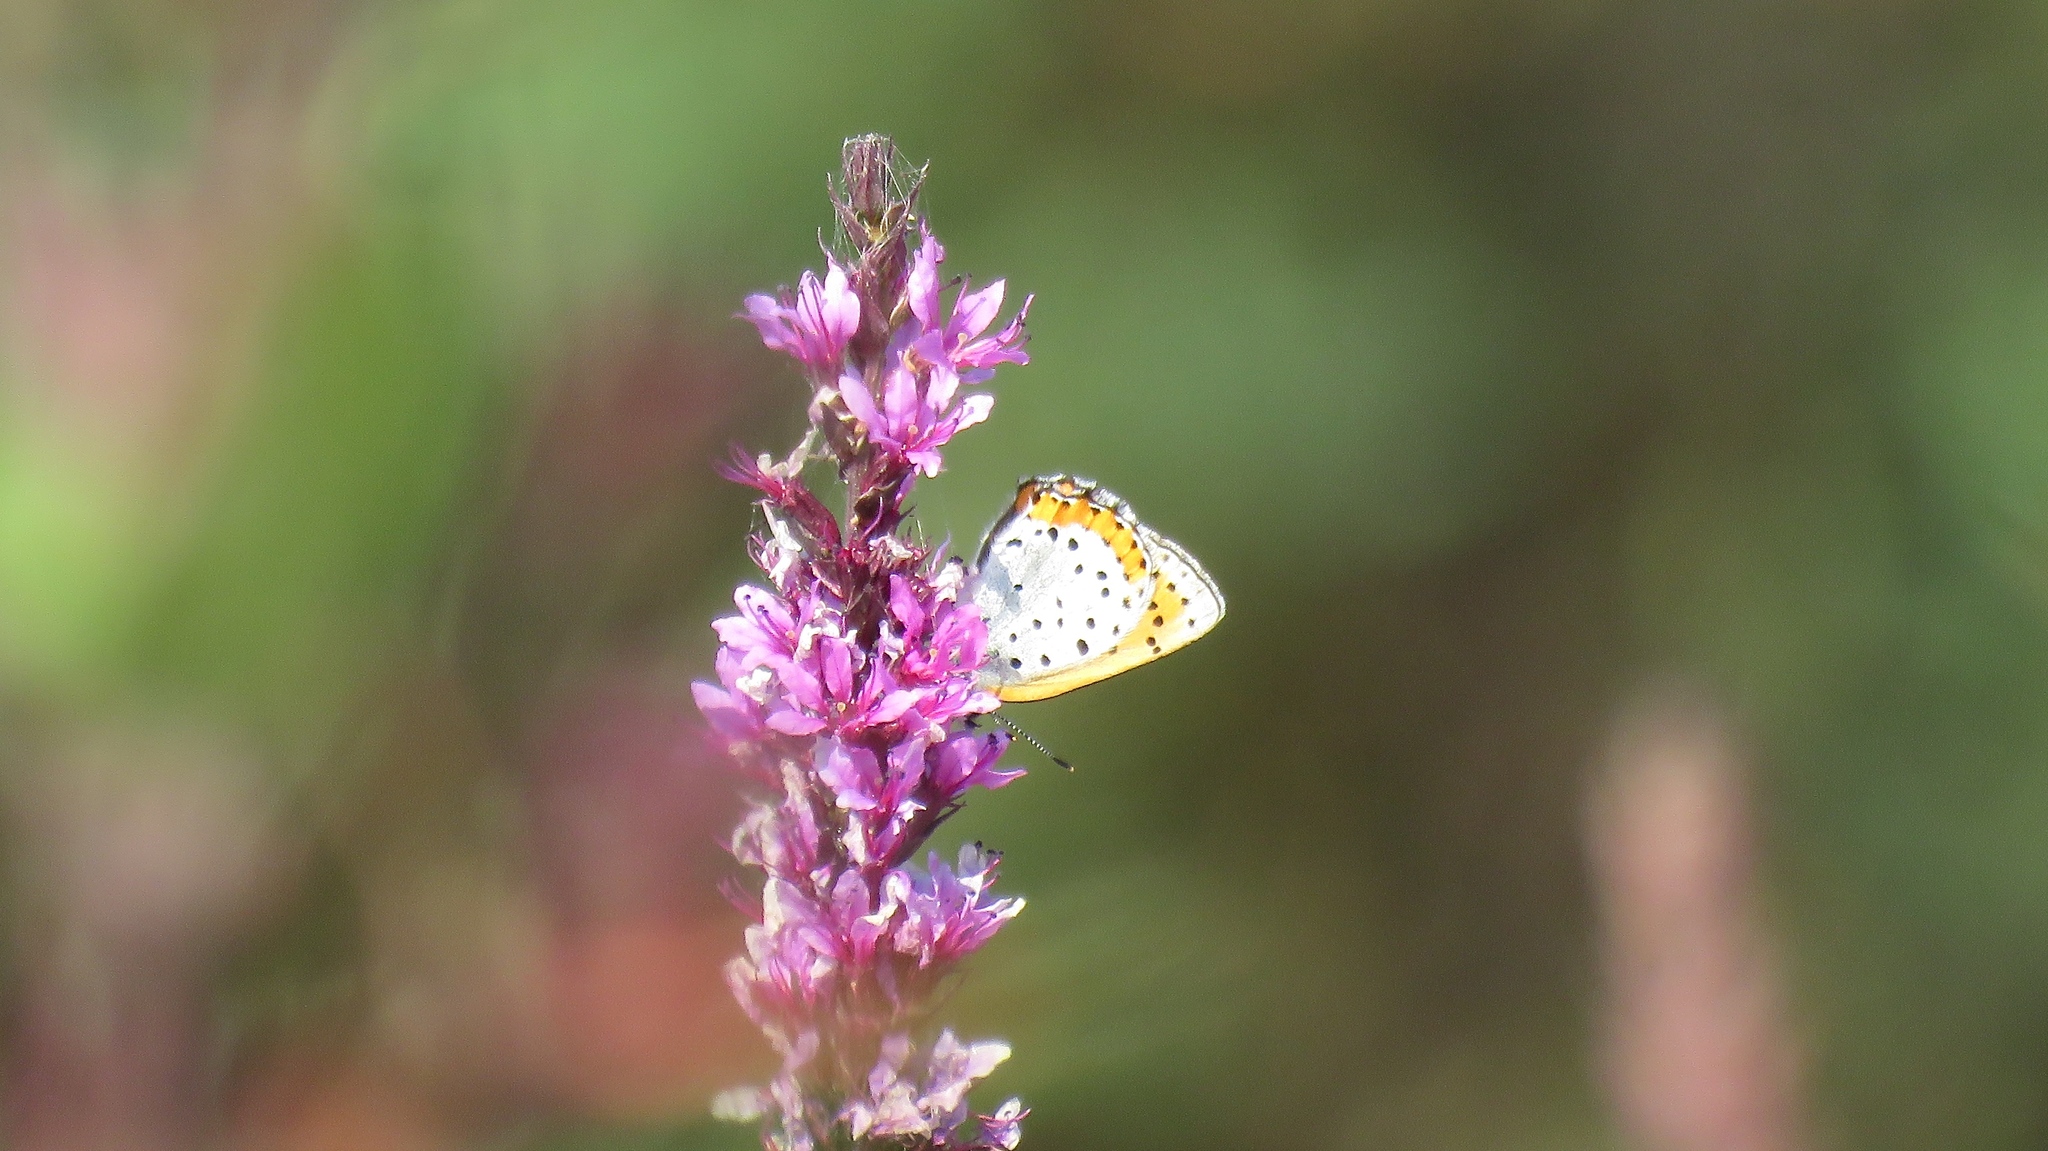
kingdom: Animalia
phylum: Arthropoda
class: Insecta
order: Lepidoptera
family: Lycaenidae
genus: Tharsalea
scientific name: Tharsalea hyllus
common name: Bronze copper
